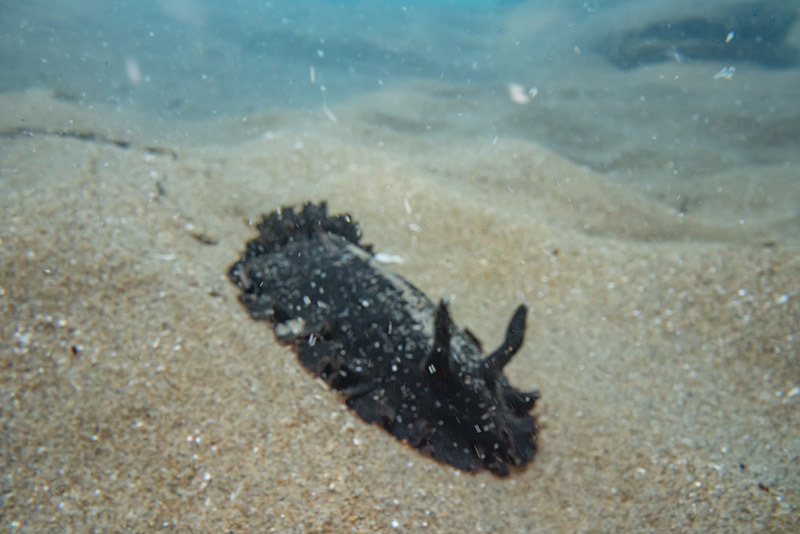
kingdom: Animalia
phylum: Mollusca
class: Gastropoda
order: Nudibranchia
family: Dendrodorididae
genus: Dendrodoris
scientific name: Dendrodoris nigra
